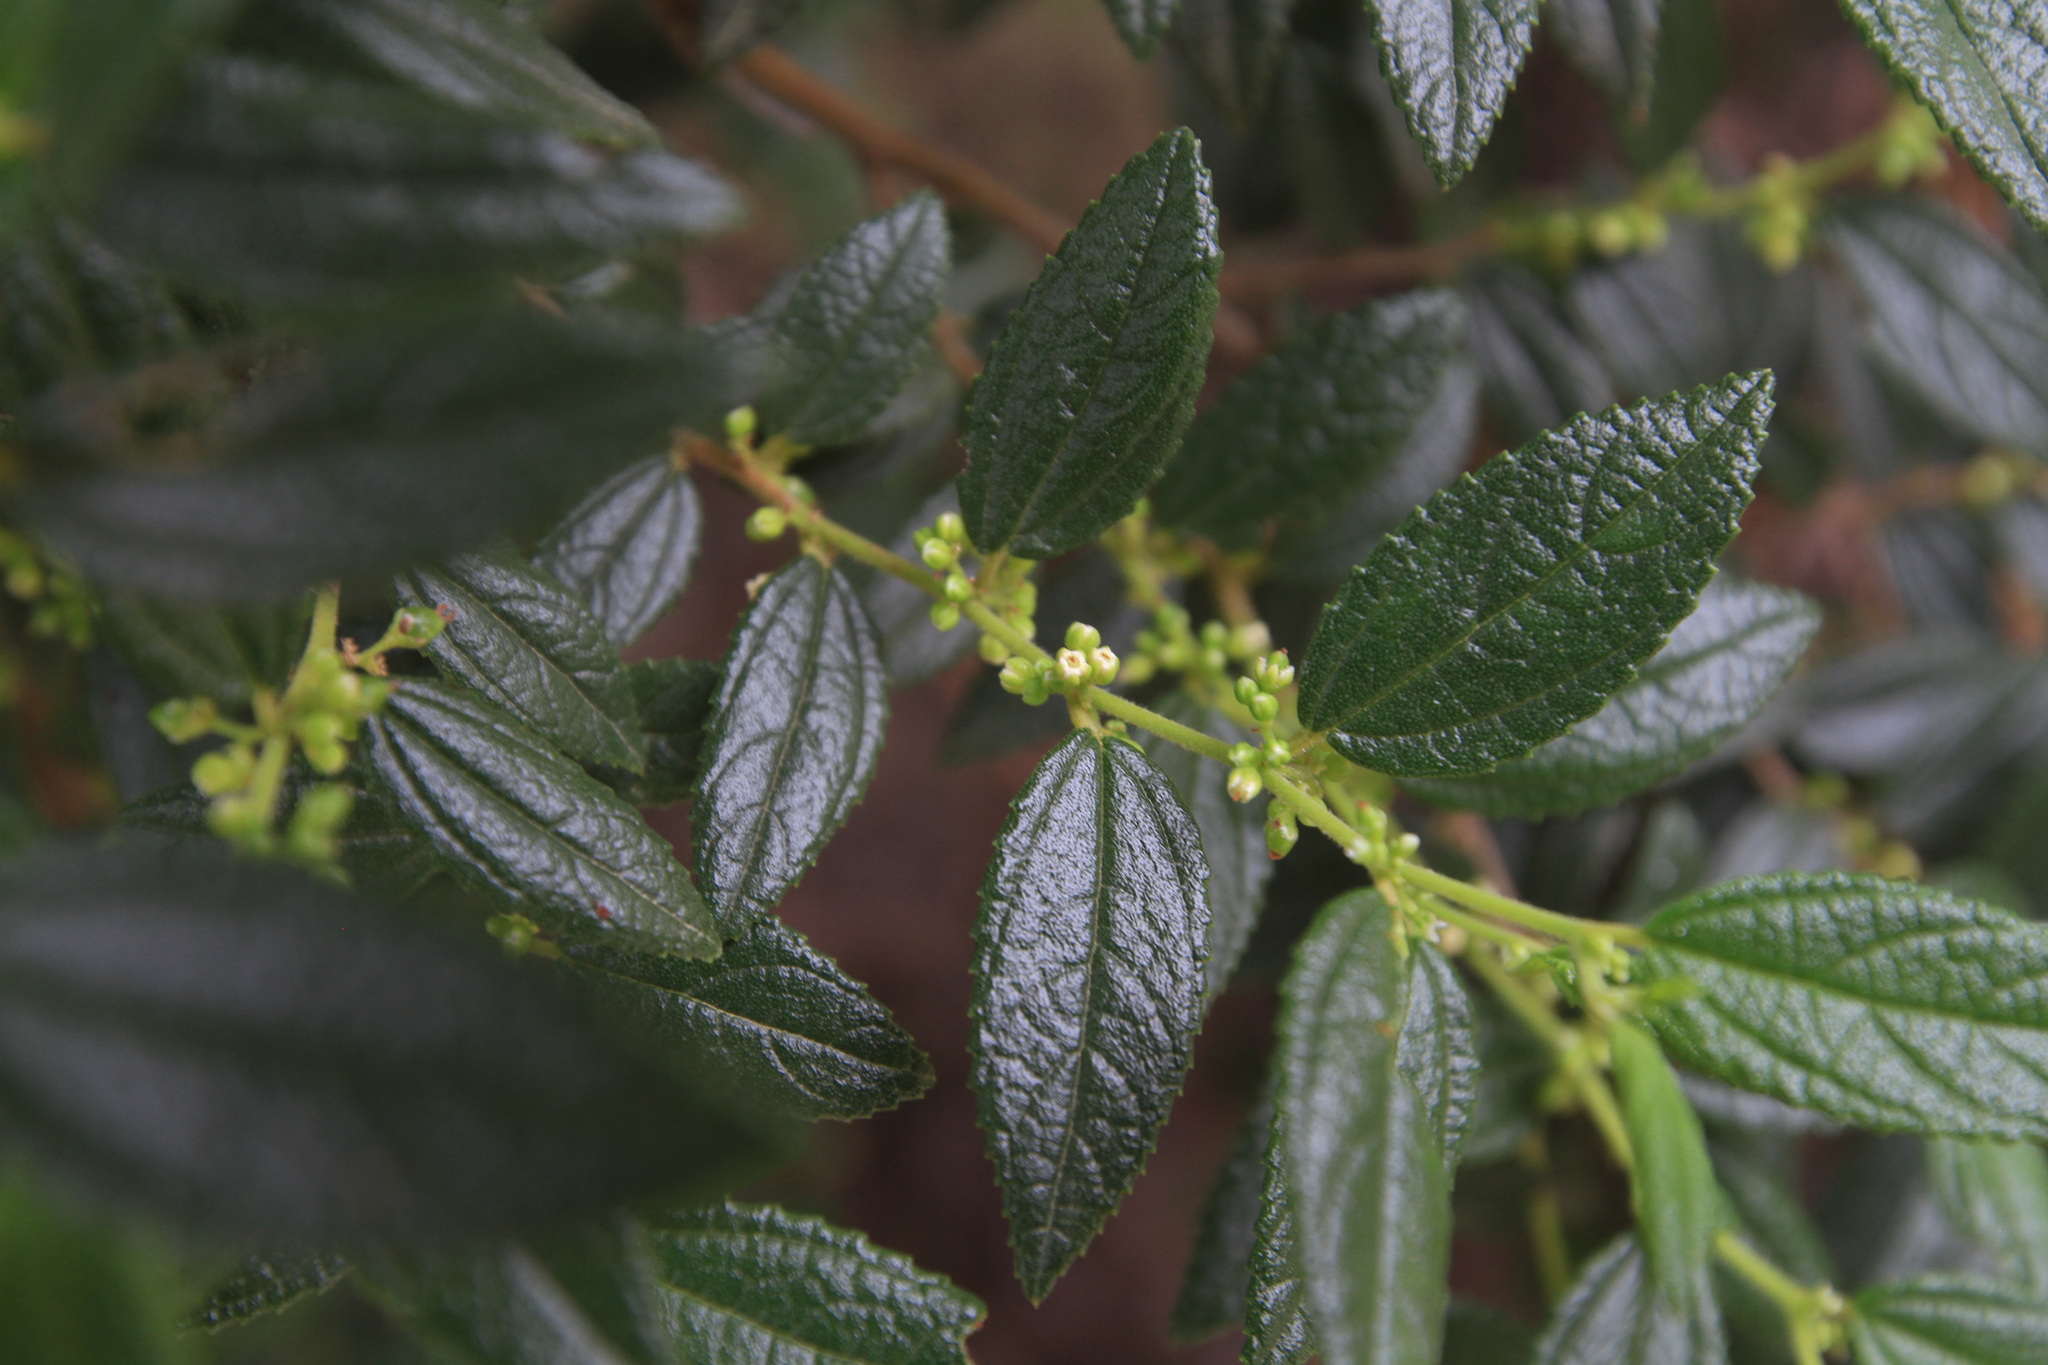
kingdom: Plantae
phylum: Tracheophyta
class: Magnoliopsida
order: Rosales
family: Cannabaceae
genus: Trema
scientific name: Trema lamarckianum
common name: Lamarck's trema
